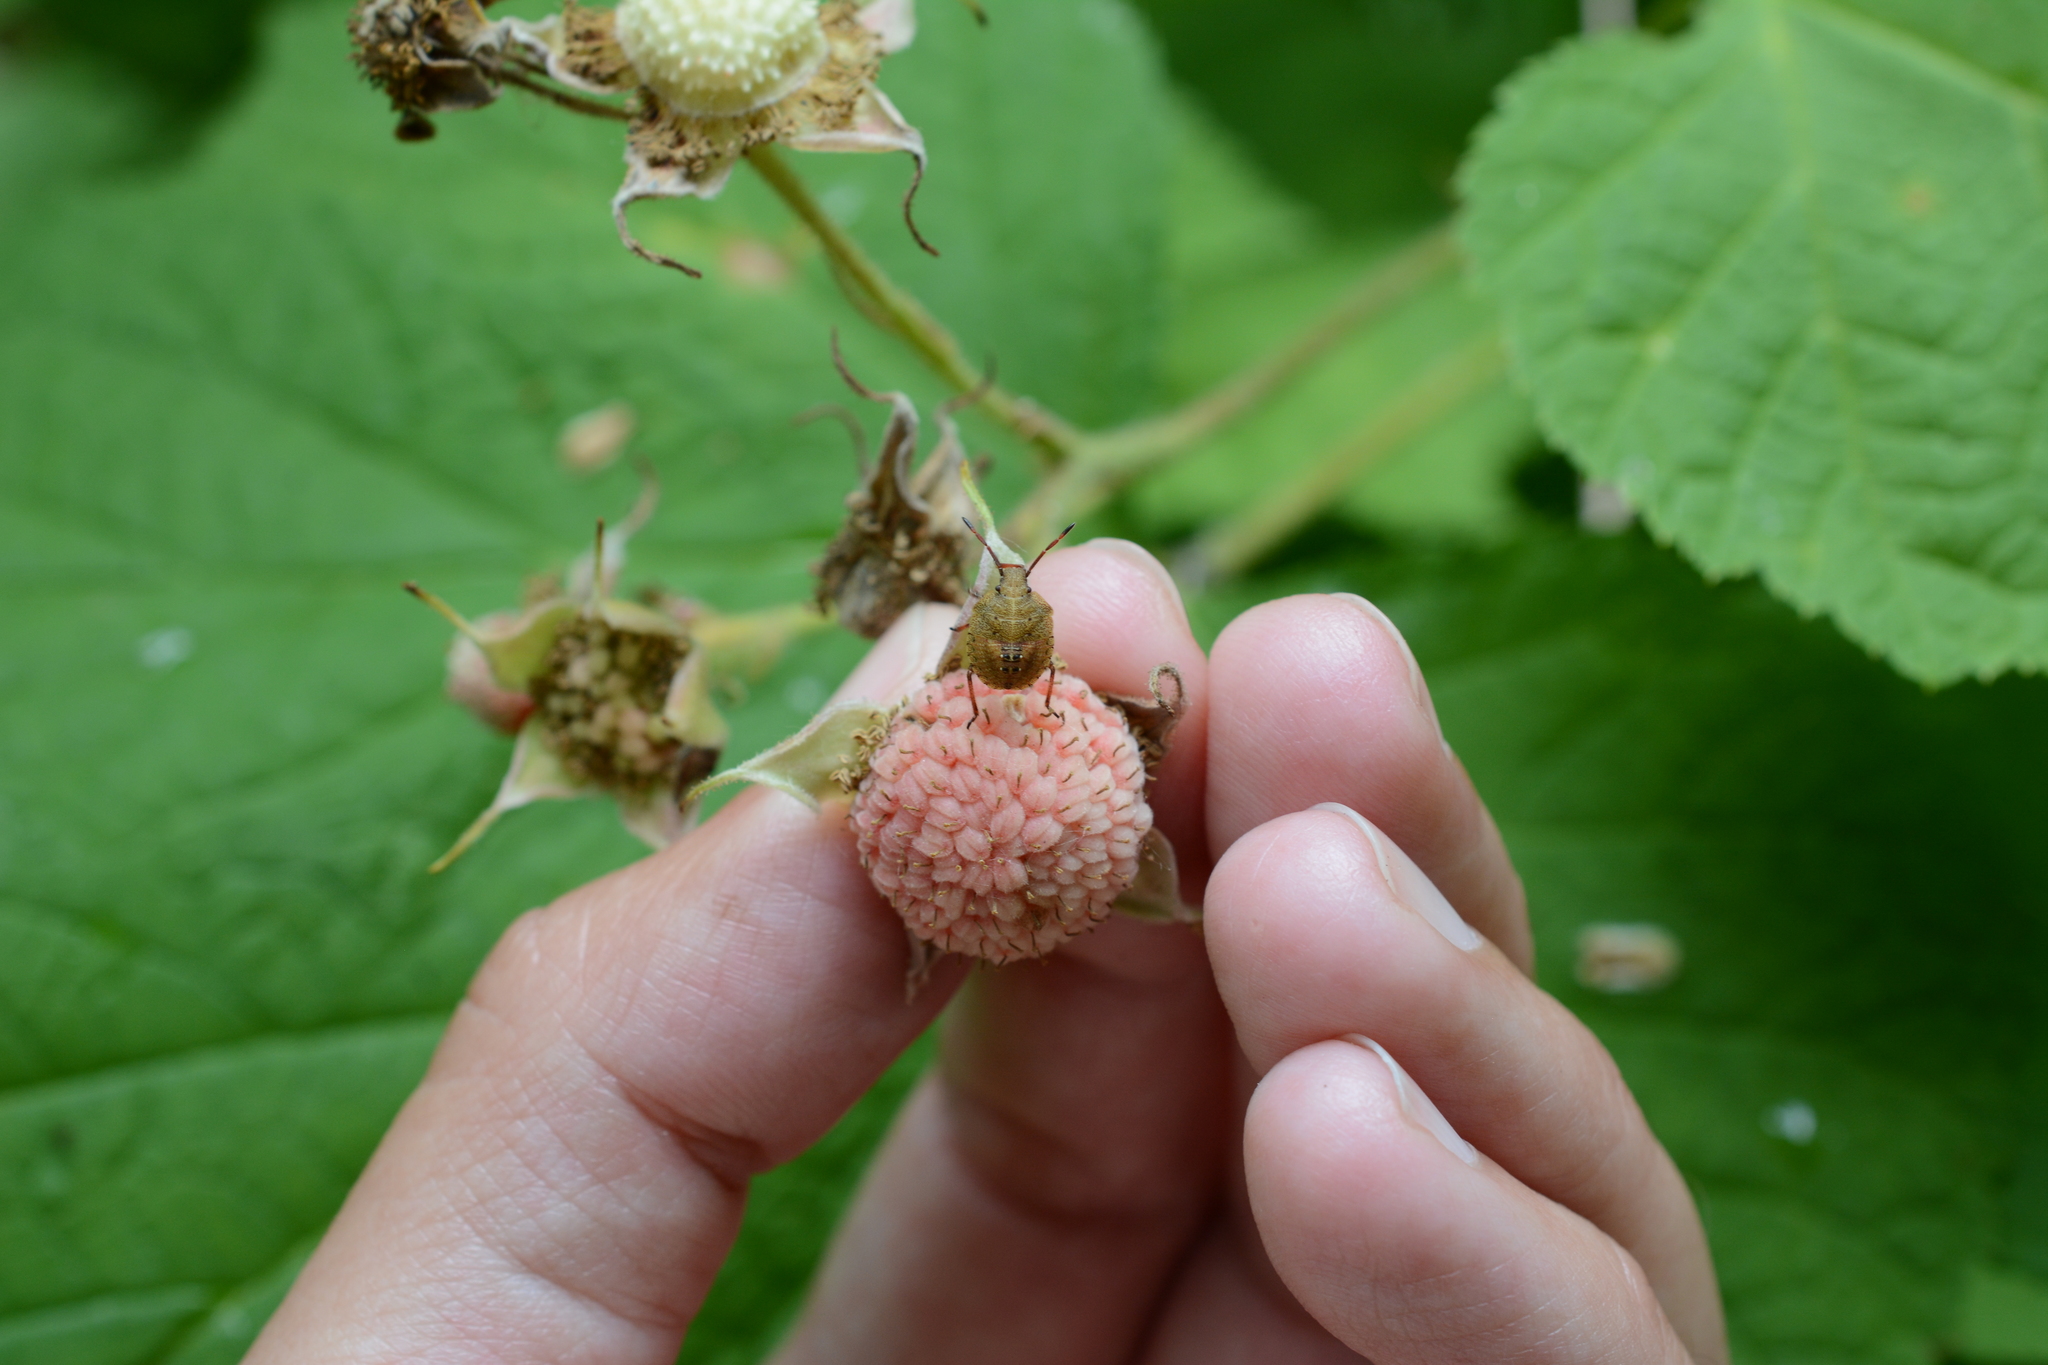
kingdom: Plantae
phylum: Tracheophyta
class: Magnoliopsida
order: Rosales
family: Rosaceae
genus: Rubus
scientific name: Rubus parviflorus
